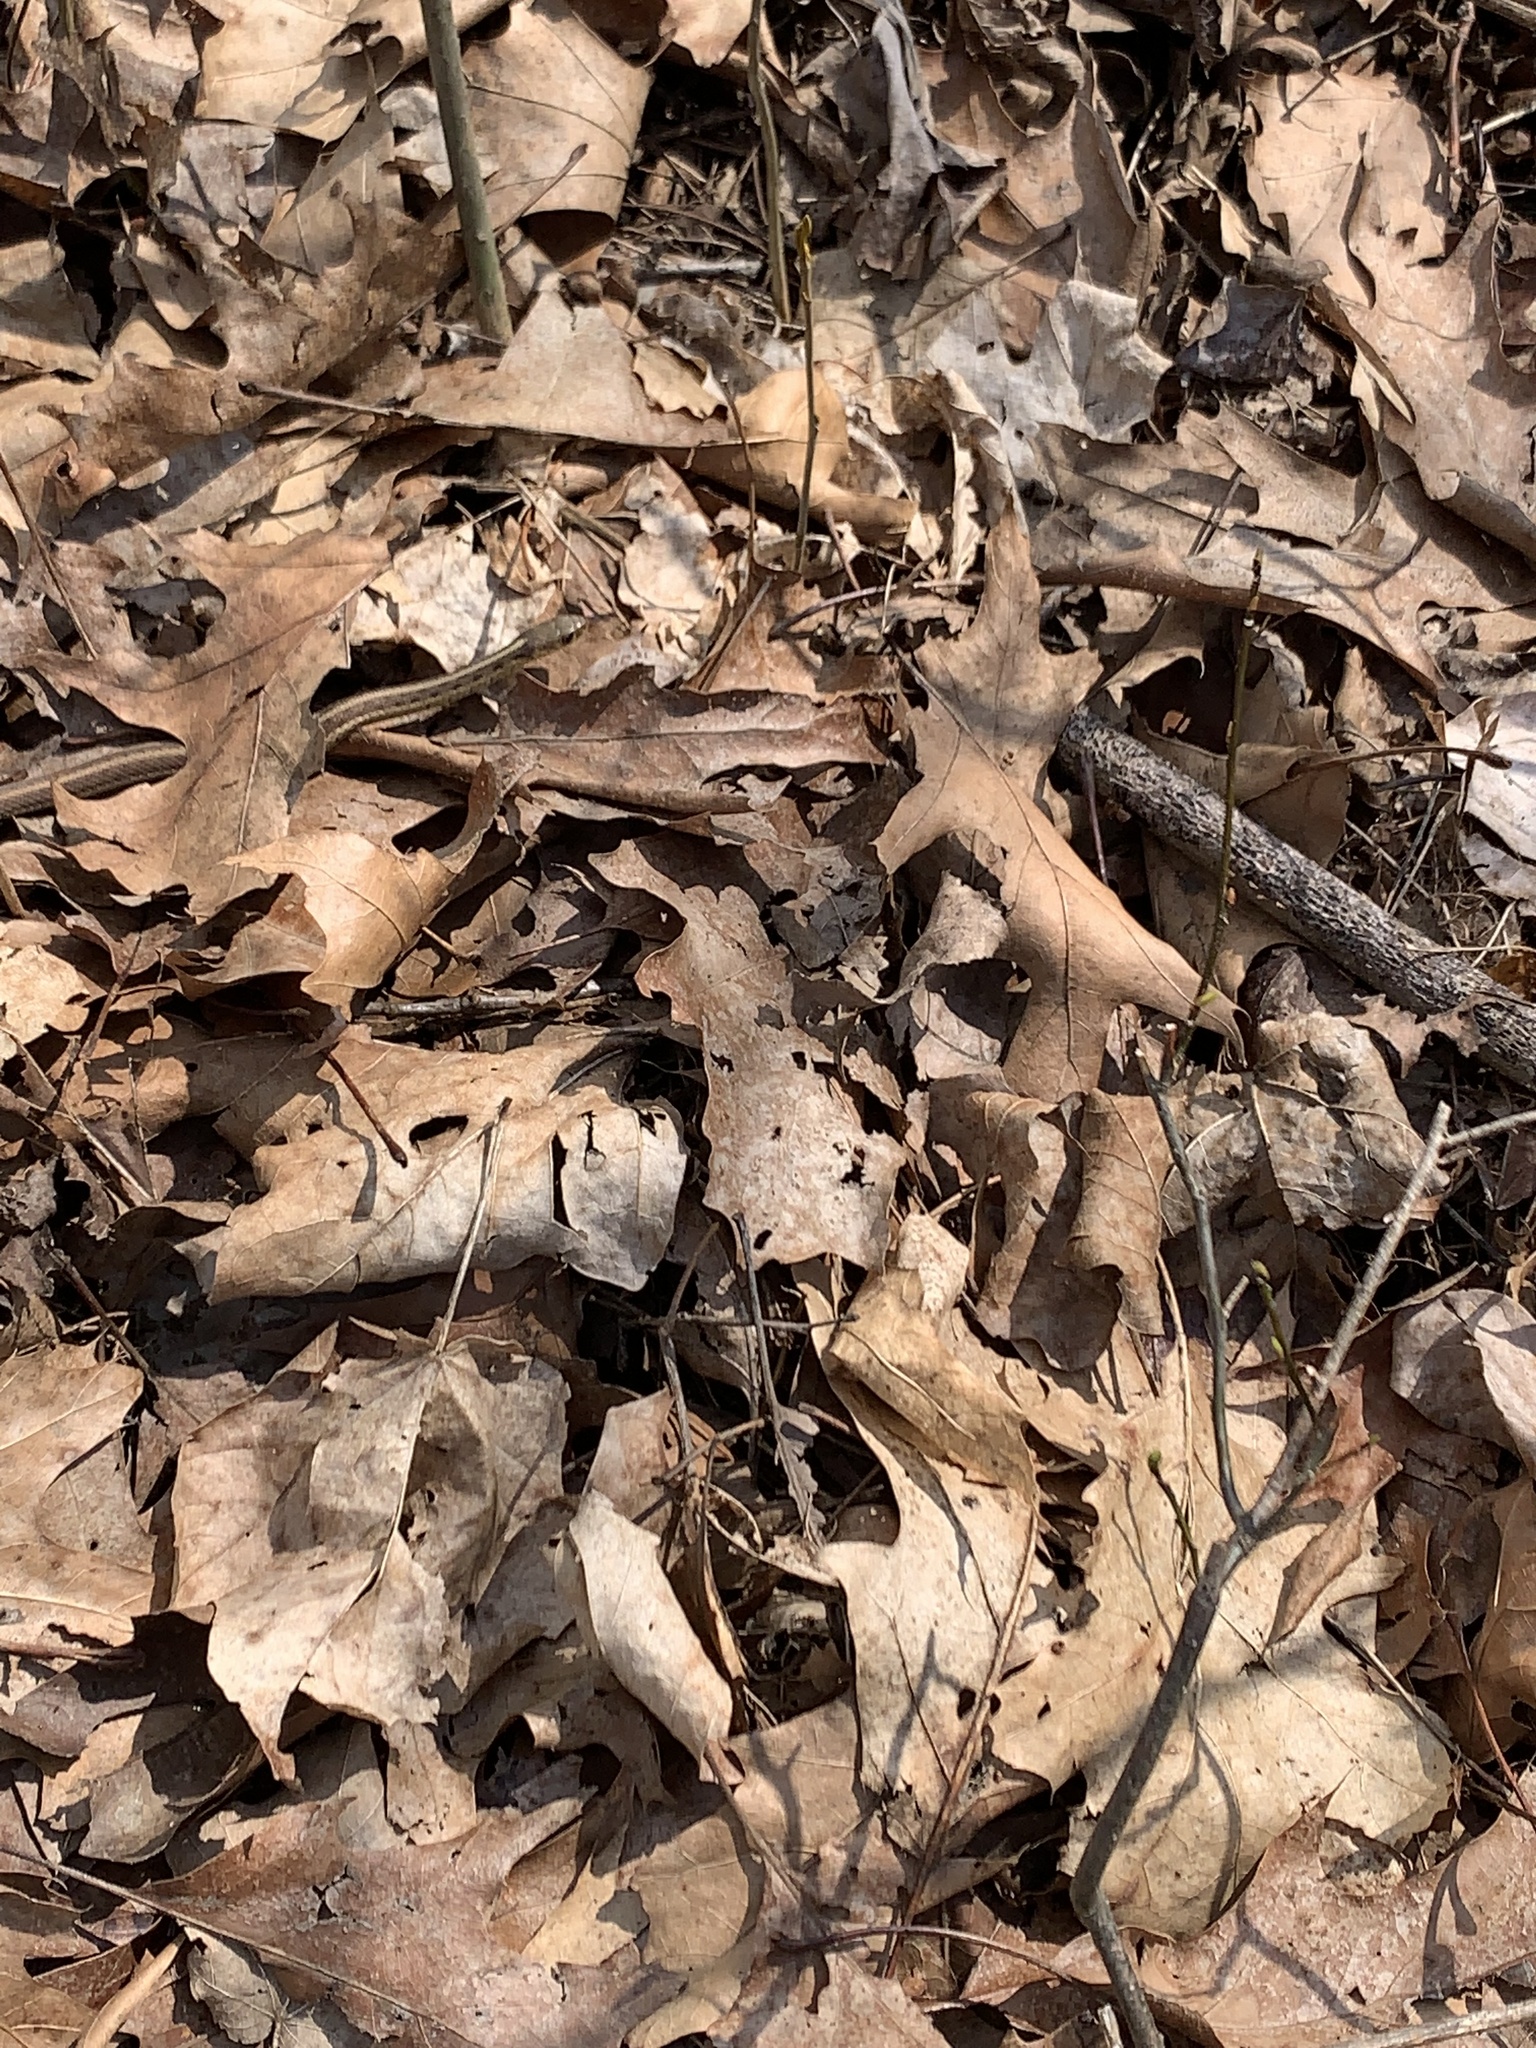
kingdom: Animalia
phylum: Chordata
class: Squamata
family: Colubridae
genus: Thamnophis
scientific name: Thamnophis sirtalis
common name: Common garter snake
